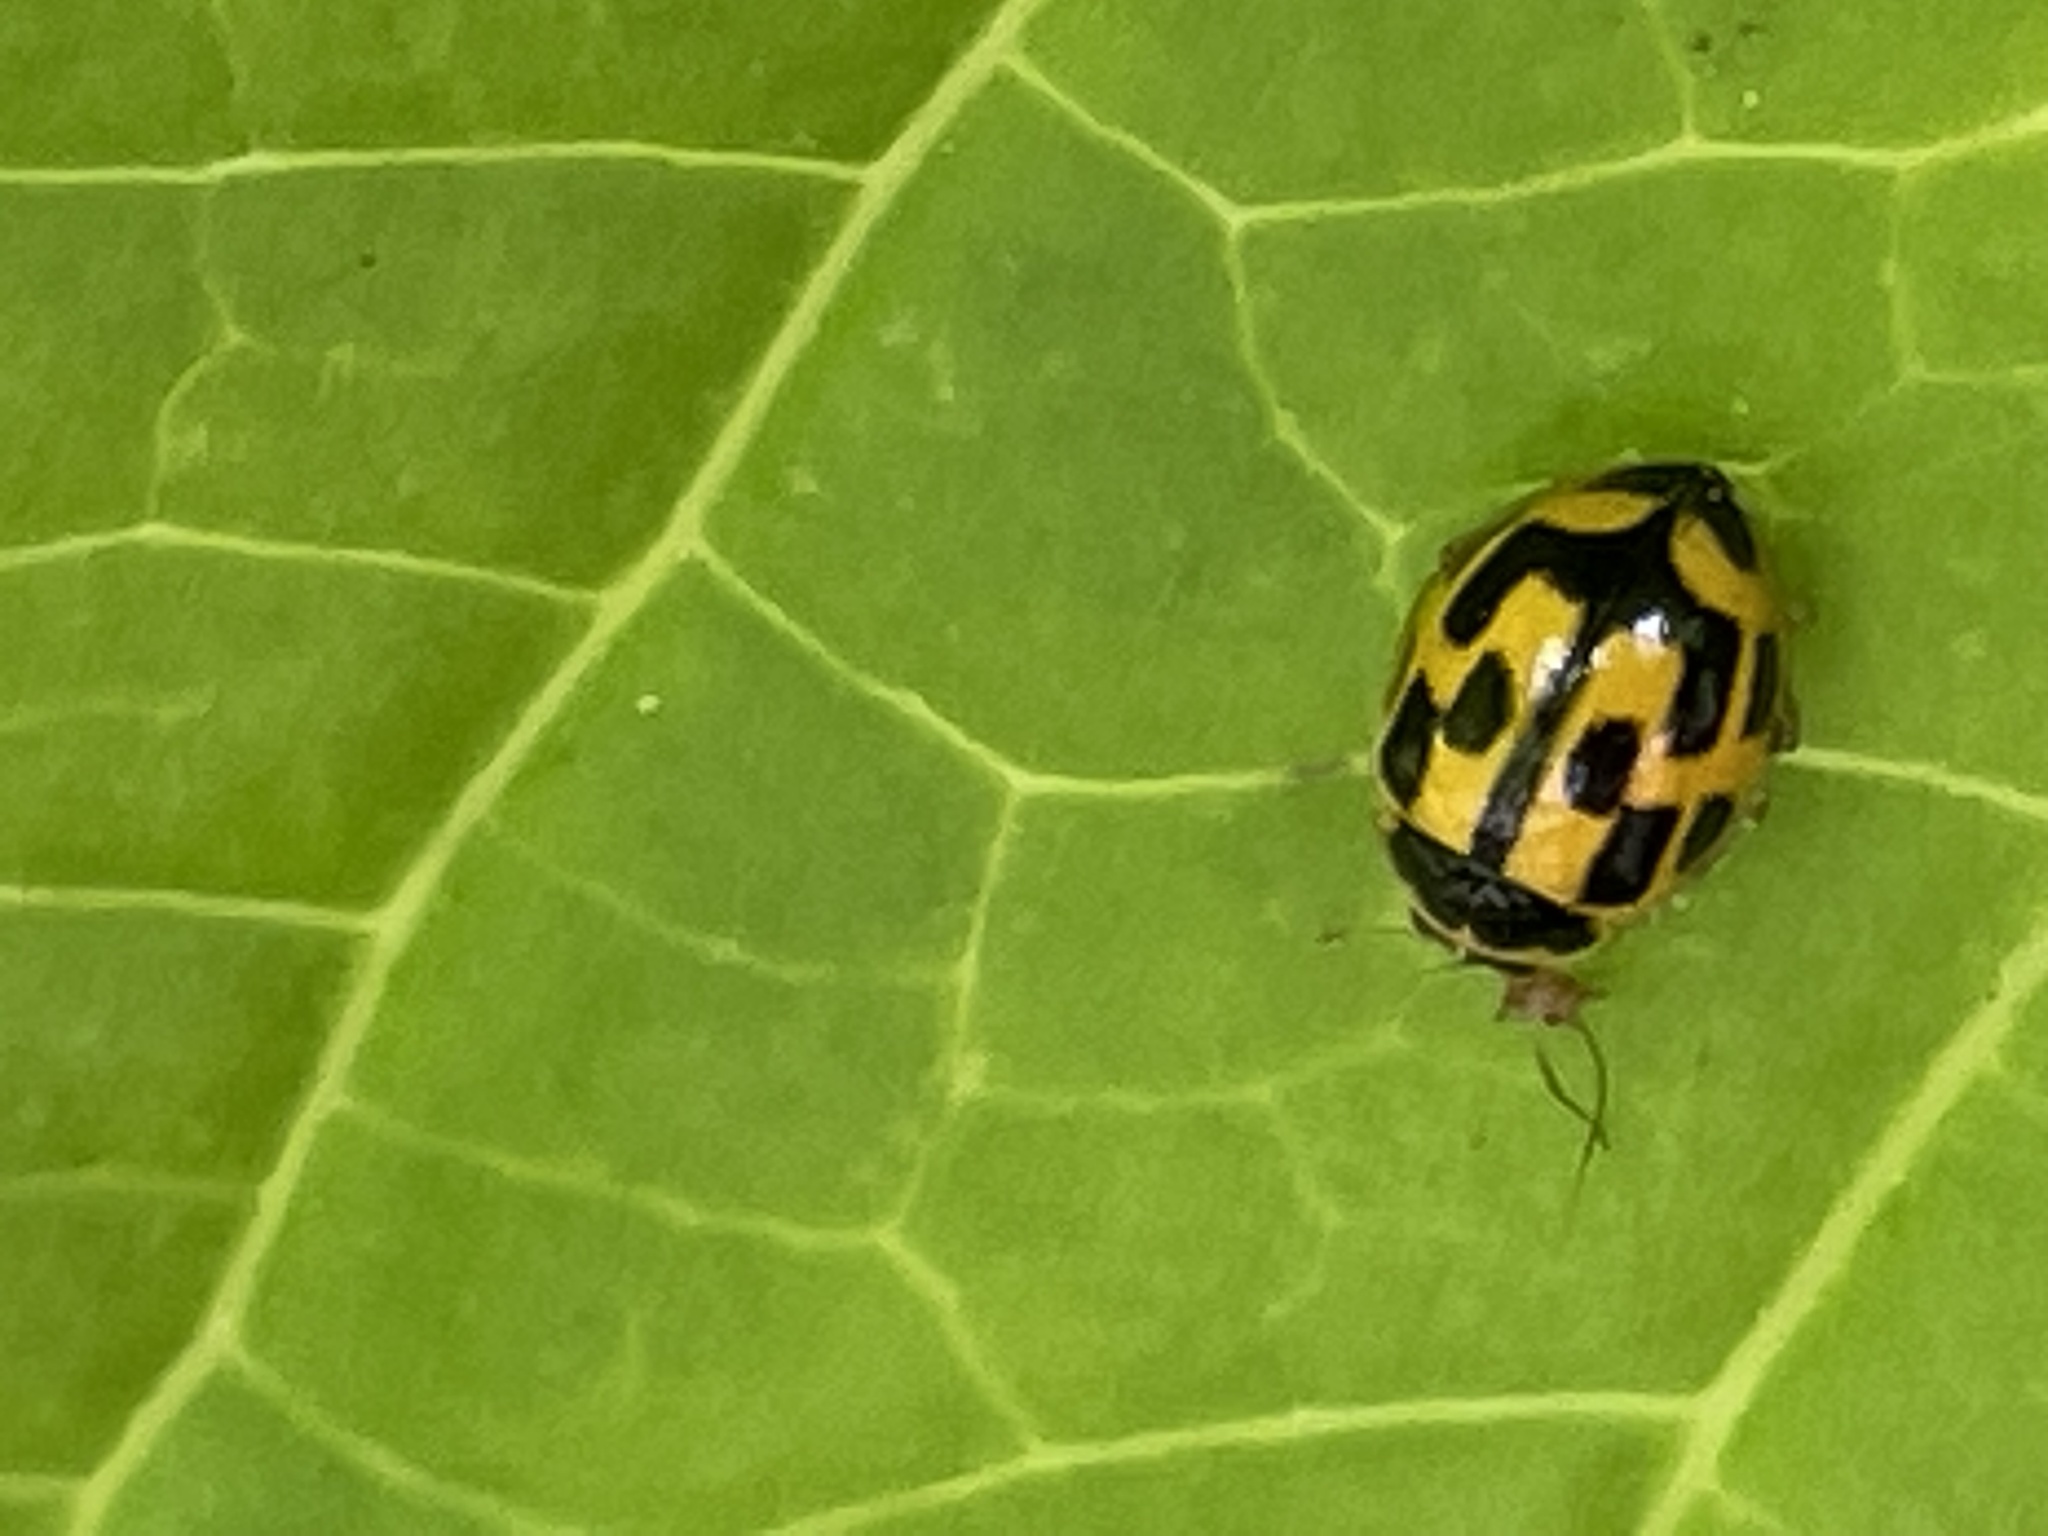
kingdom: Animalia
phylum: Arthropoda
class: Insecta
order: Coleoptera
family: Coccinellidae
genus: Propylaea
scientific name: Propylaea quatuordecimpunctata
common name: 14-spotted ladybird beetle
